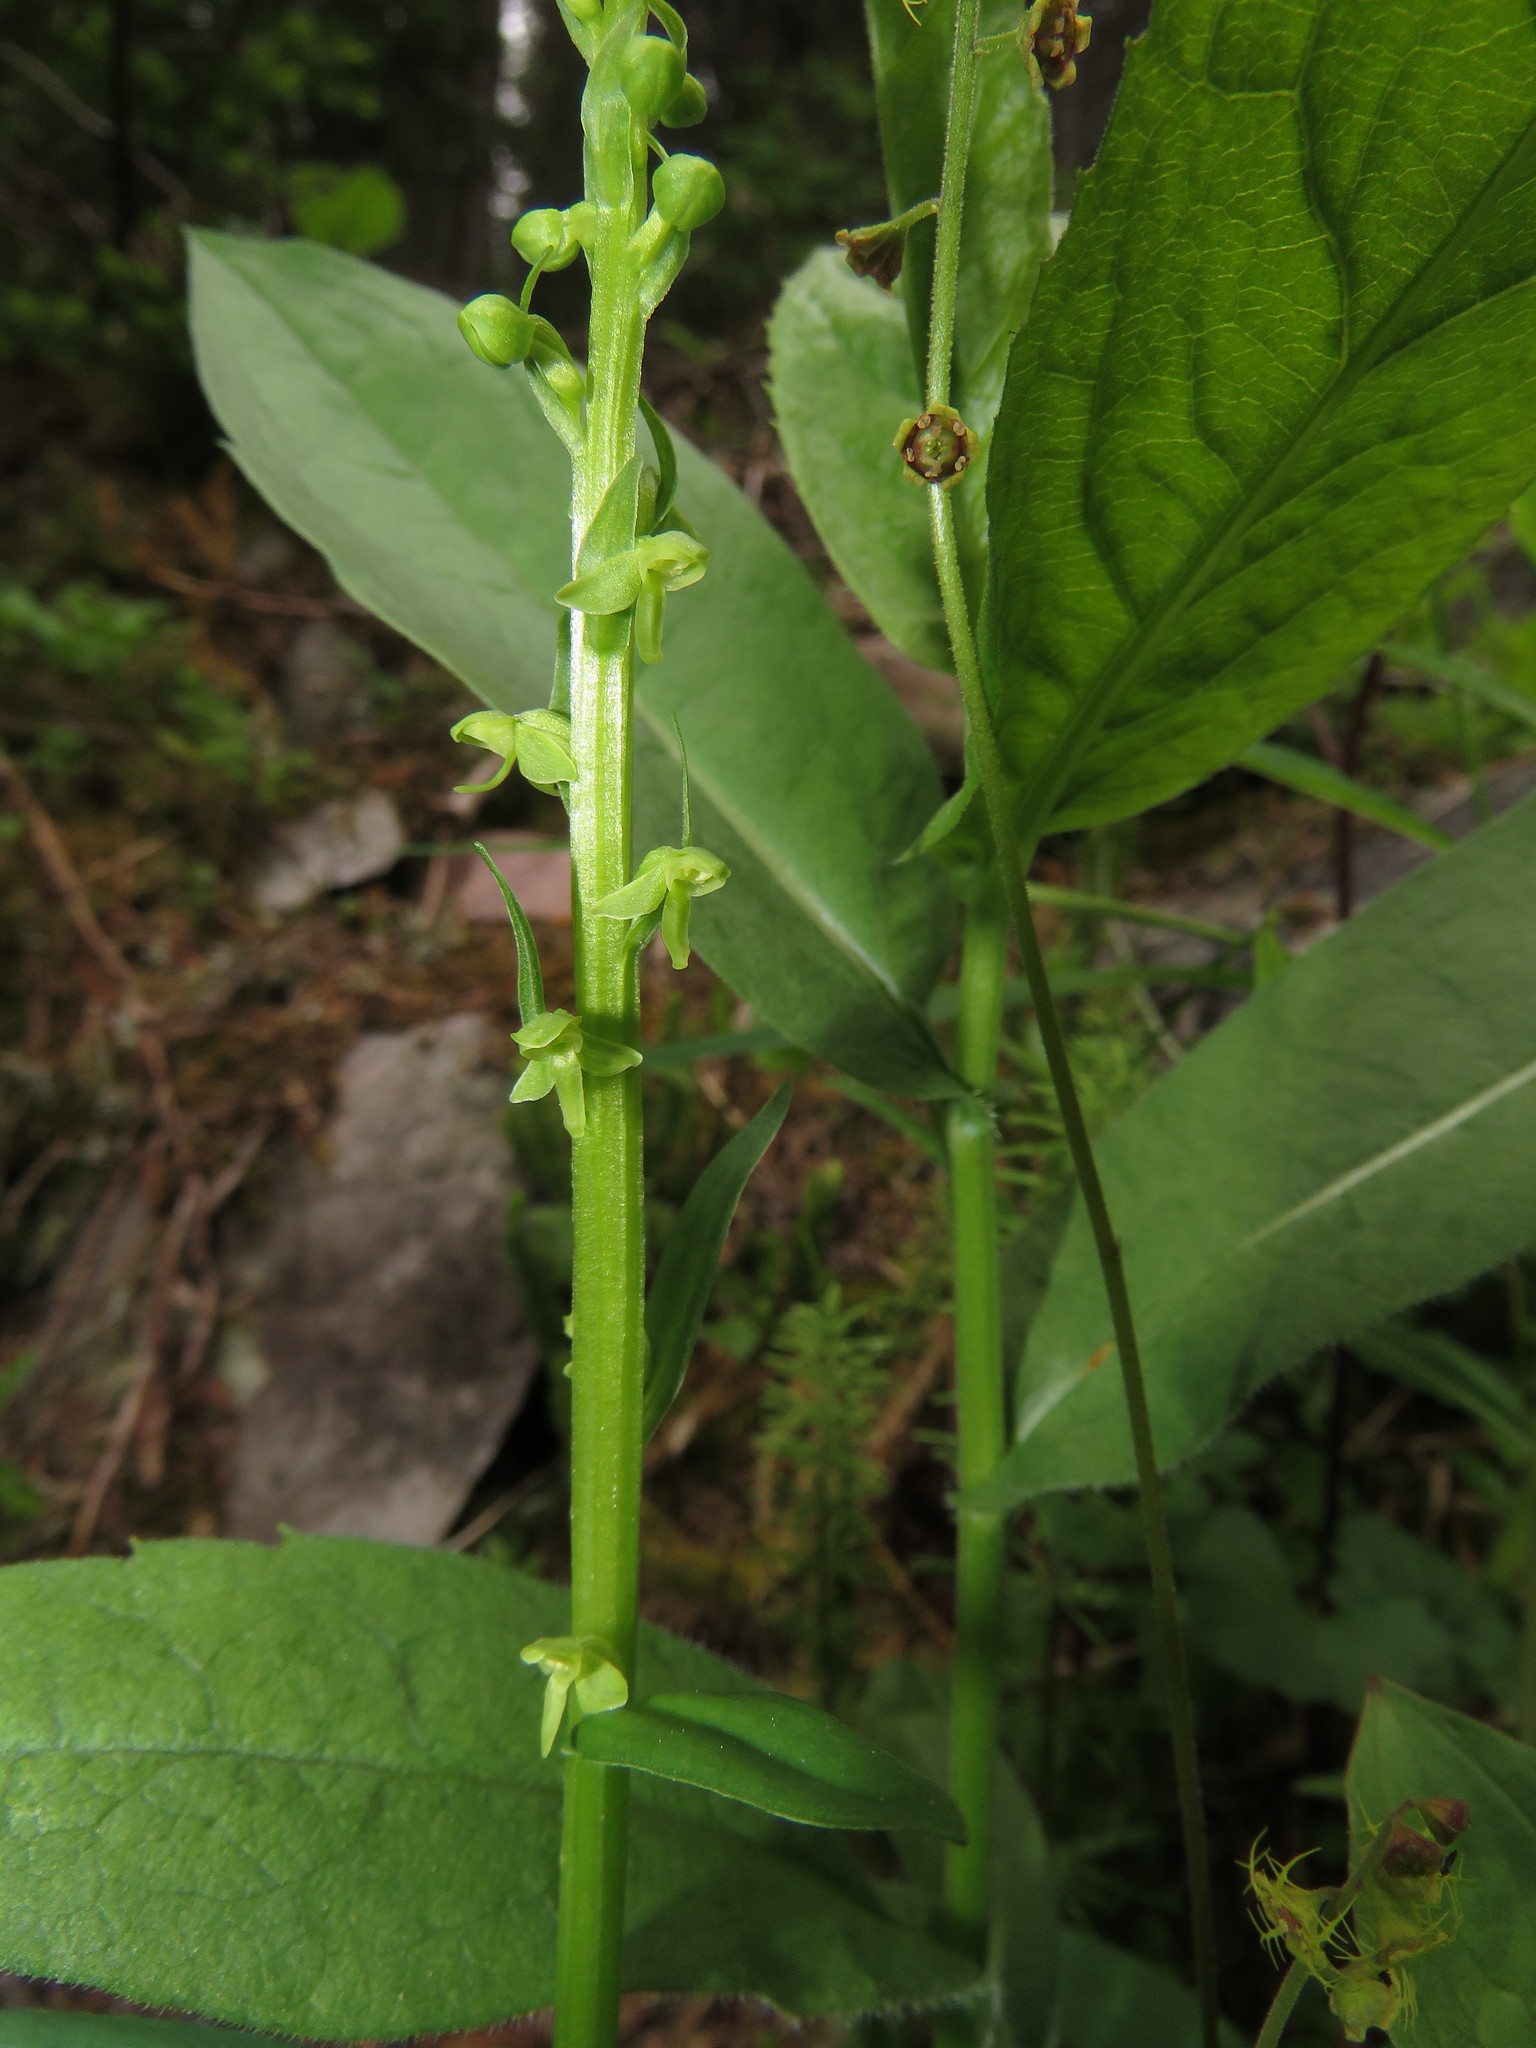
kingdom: Plantae
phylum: Tracheophyta
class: Liliopsida
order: Asparagales
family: Orchidaceae
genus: Platanthera
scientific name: Platanthera stricta
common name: Slender bog orchid
